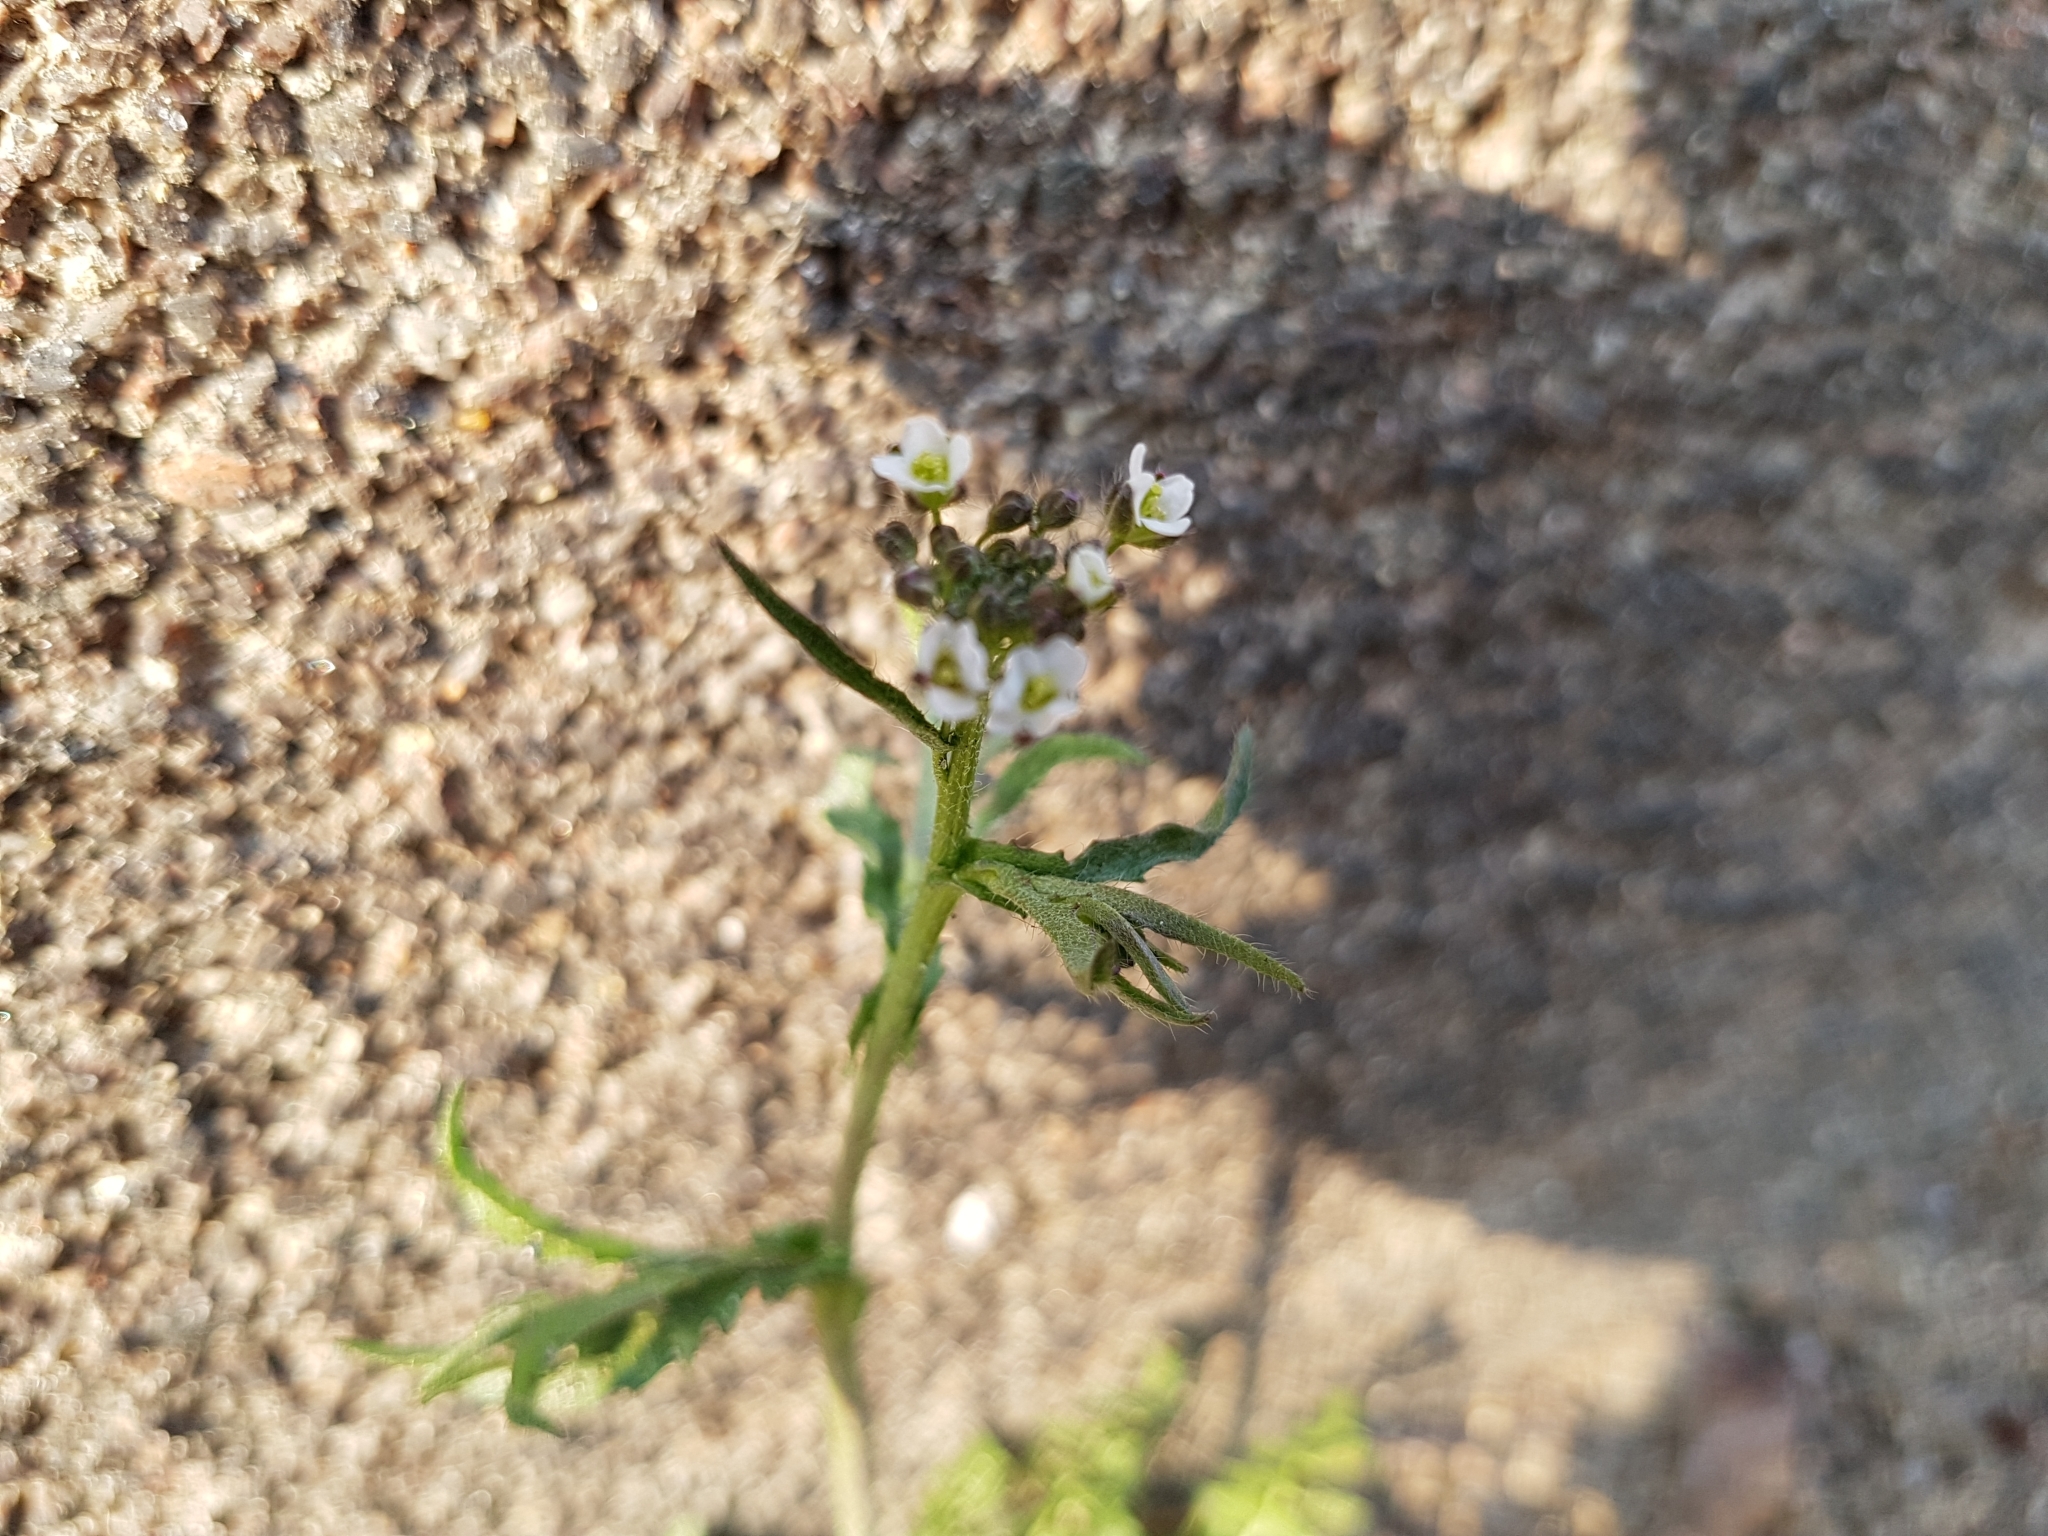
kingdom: Plantae
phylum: Tracheophyta
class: Magnoliopsida
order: Brassicales
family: Brassicaceae
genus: Capsella
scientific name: Capsella bursa-pastoris
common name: Shepherd's purse
